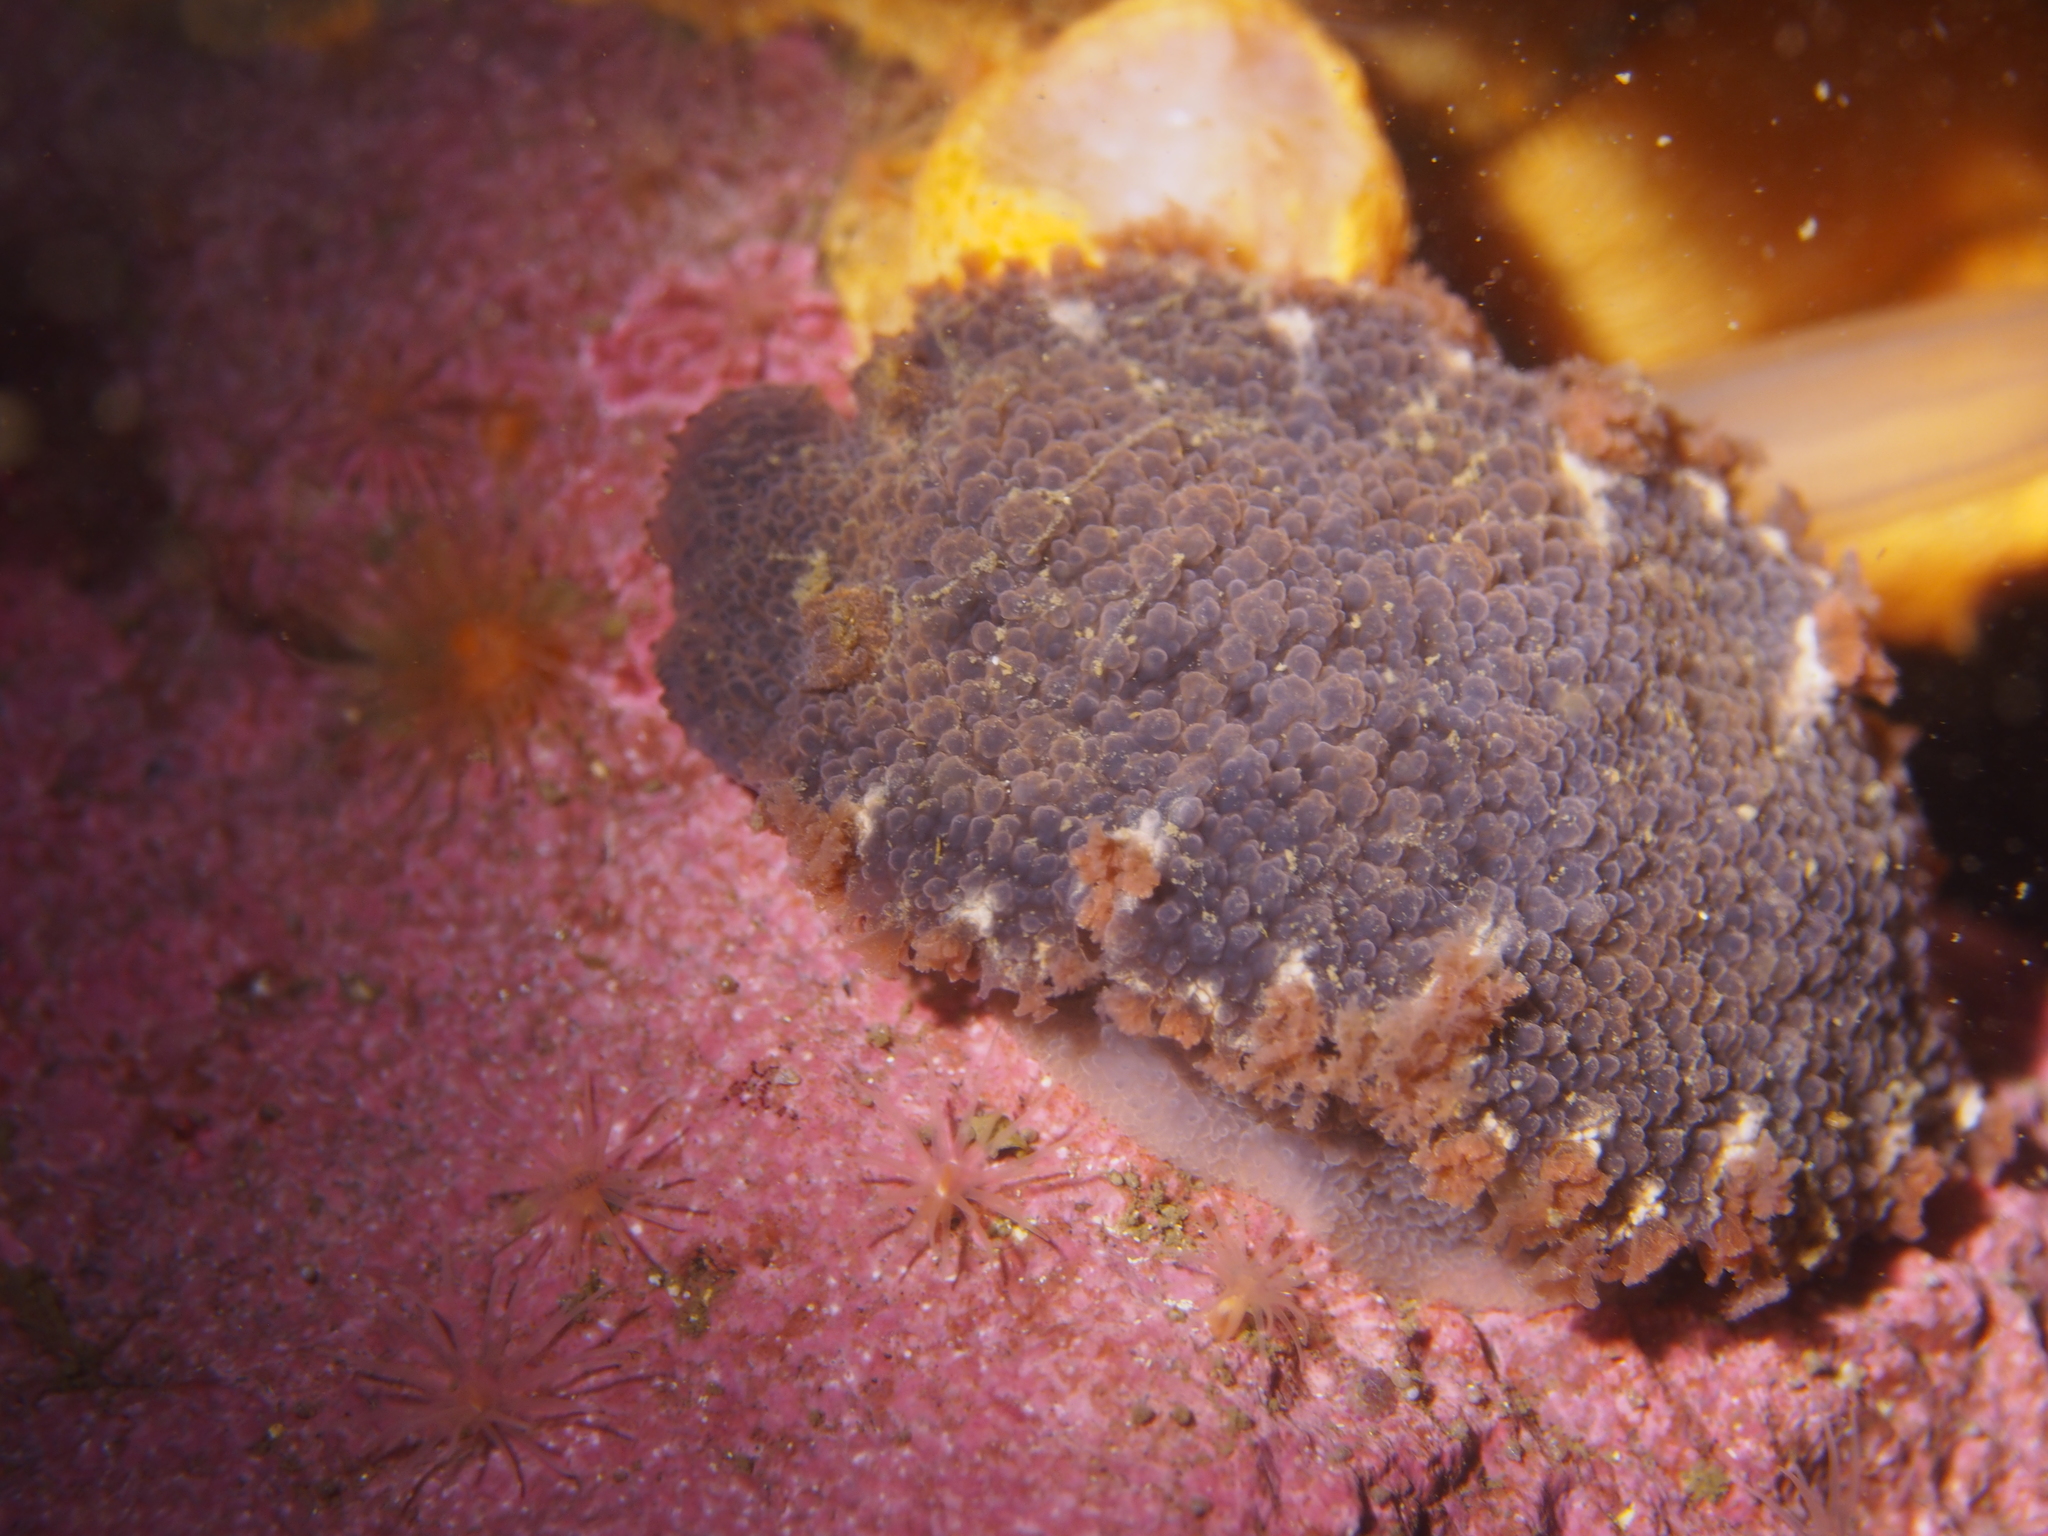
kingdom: Animalia
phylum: Mollusca
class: Gastropoda
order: Nudibranchia
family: Tritoniidae
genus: Tritonia
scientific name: Tritonia hombergii
